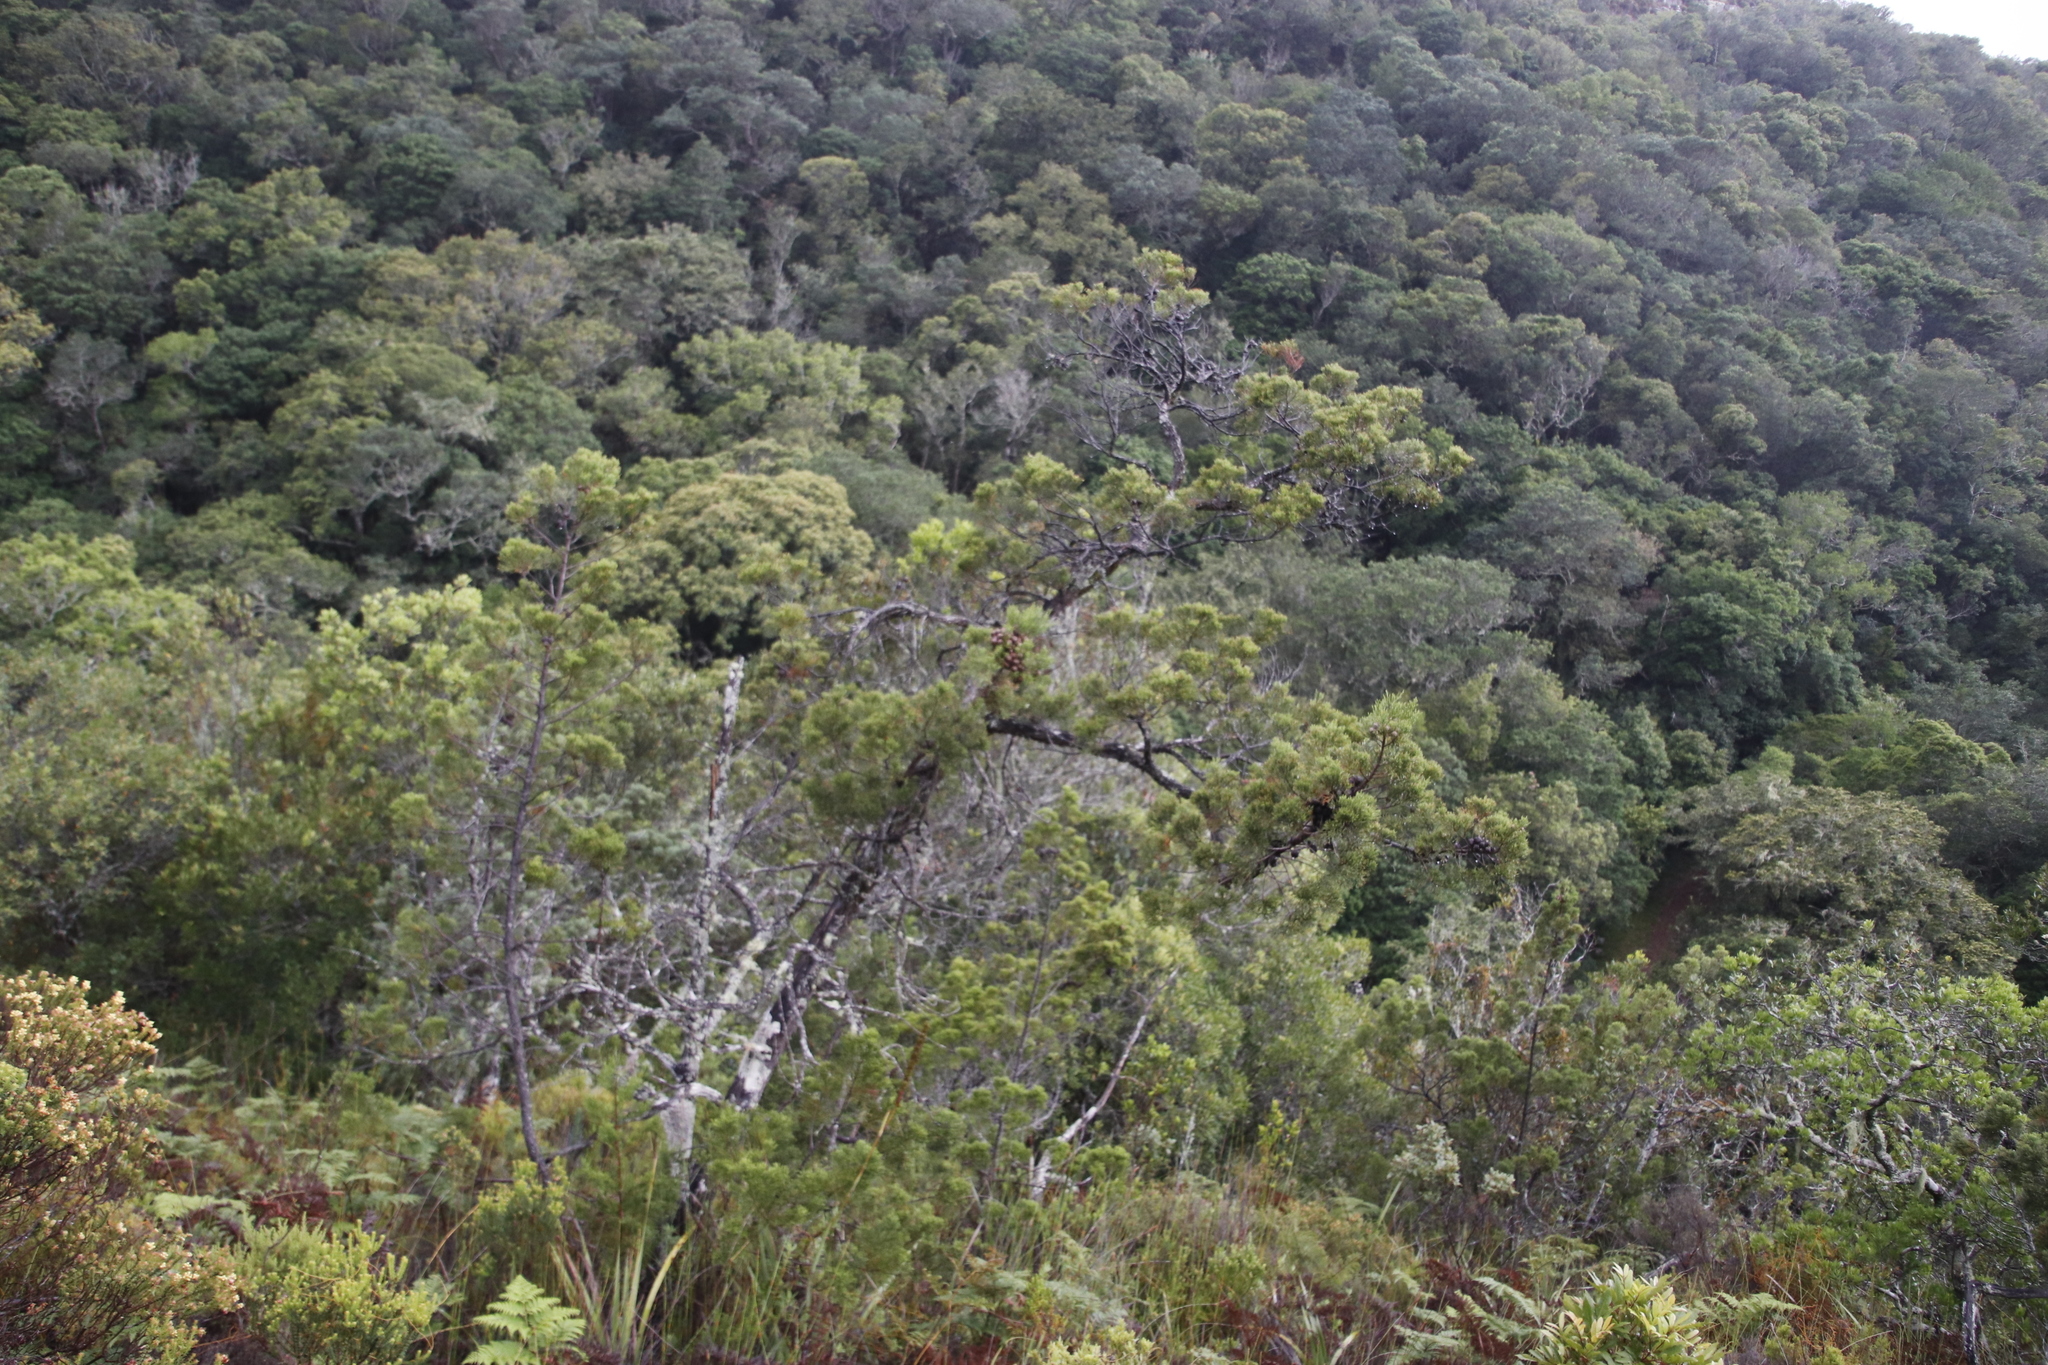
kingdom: Plantae
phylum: Tracheophyta
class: Pinopsida
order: Pinales
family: Cupressaceae
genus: Widdringtonia
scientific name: Widdringtonia nodiflora
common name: Cape cypress
